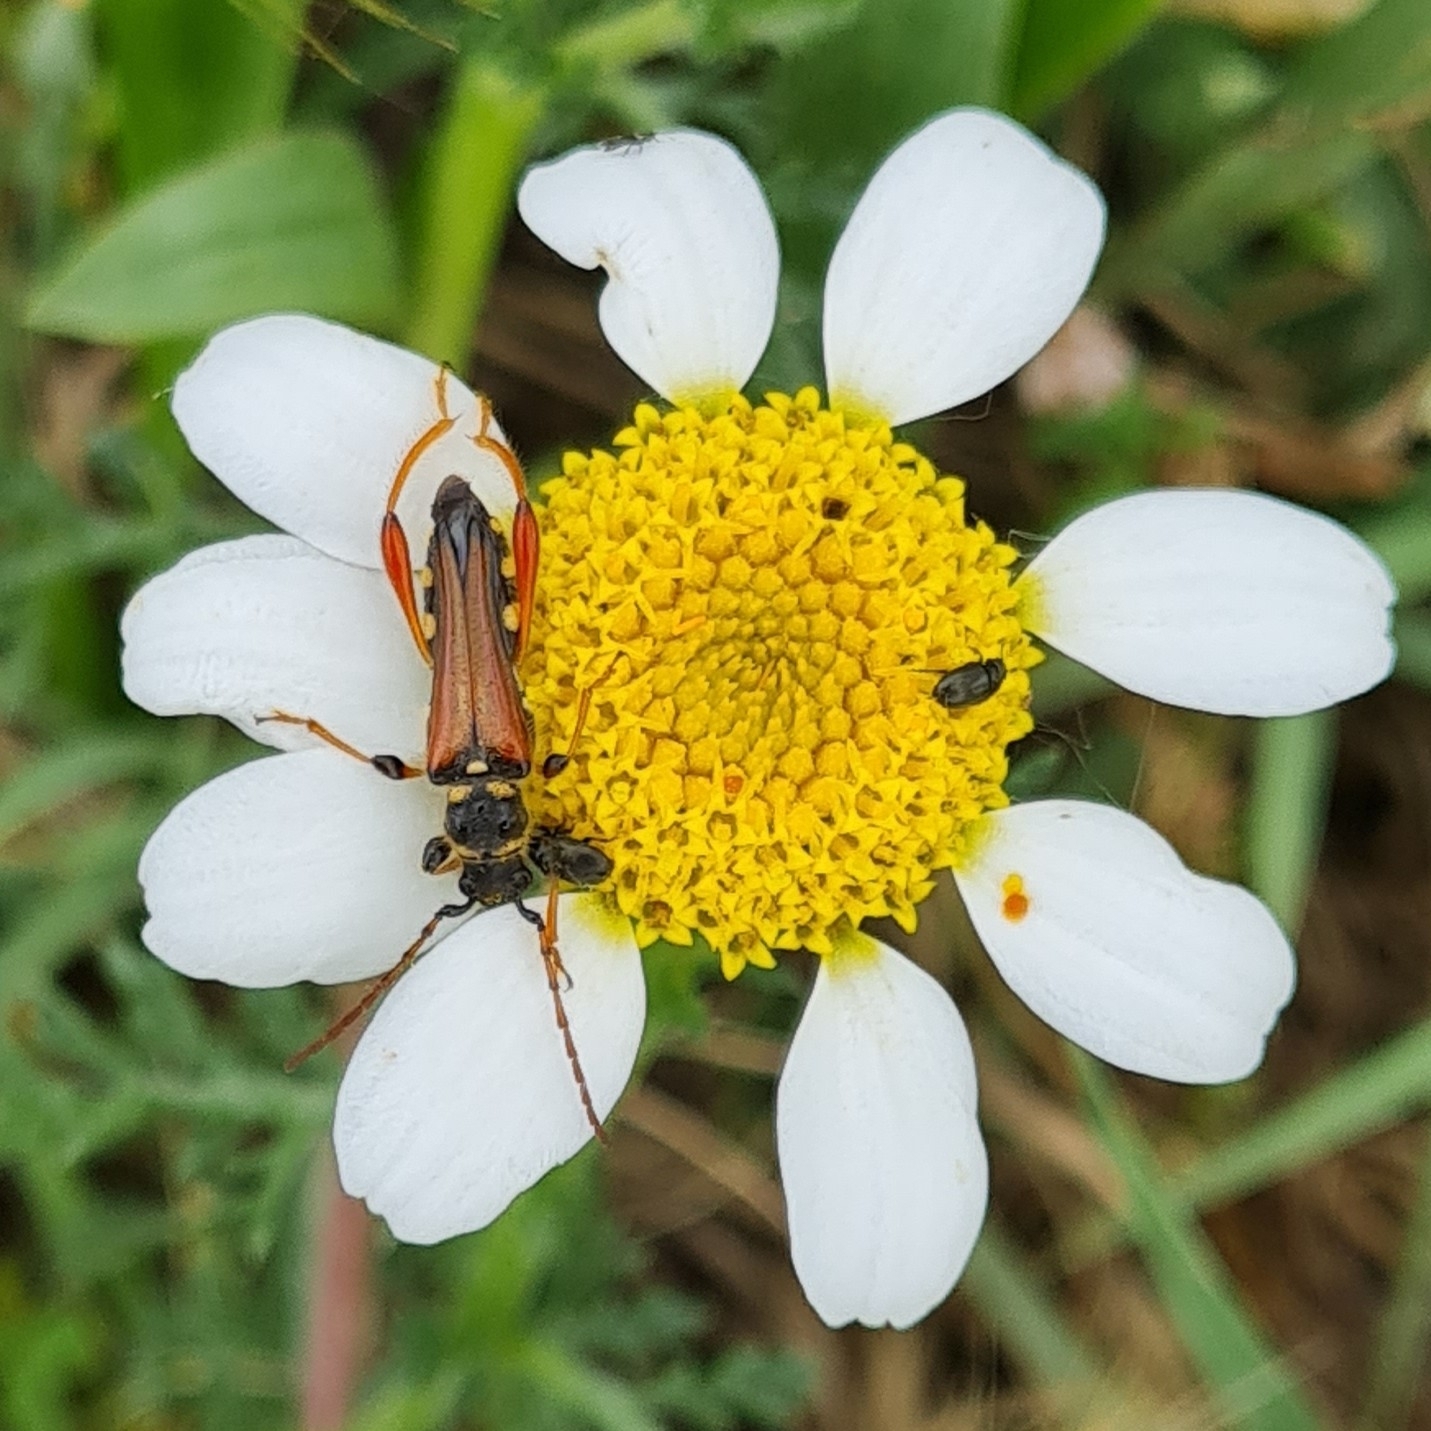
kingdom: Animalia
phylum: Arthropoda
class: Insecta
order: Coleoptera
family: Cerambycidae
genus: Stenopterus
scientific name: Stenopterus rufus
